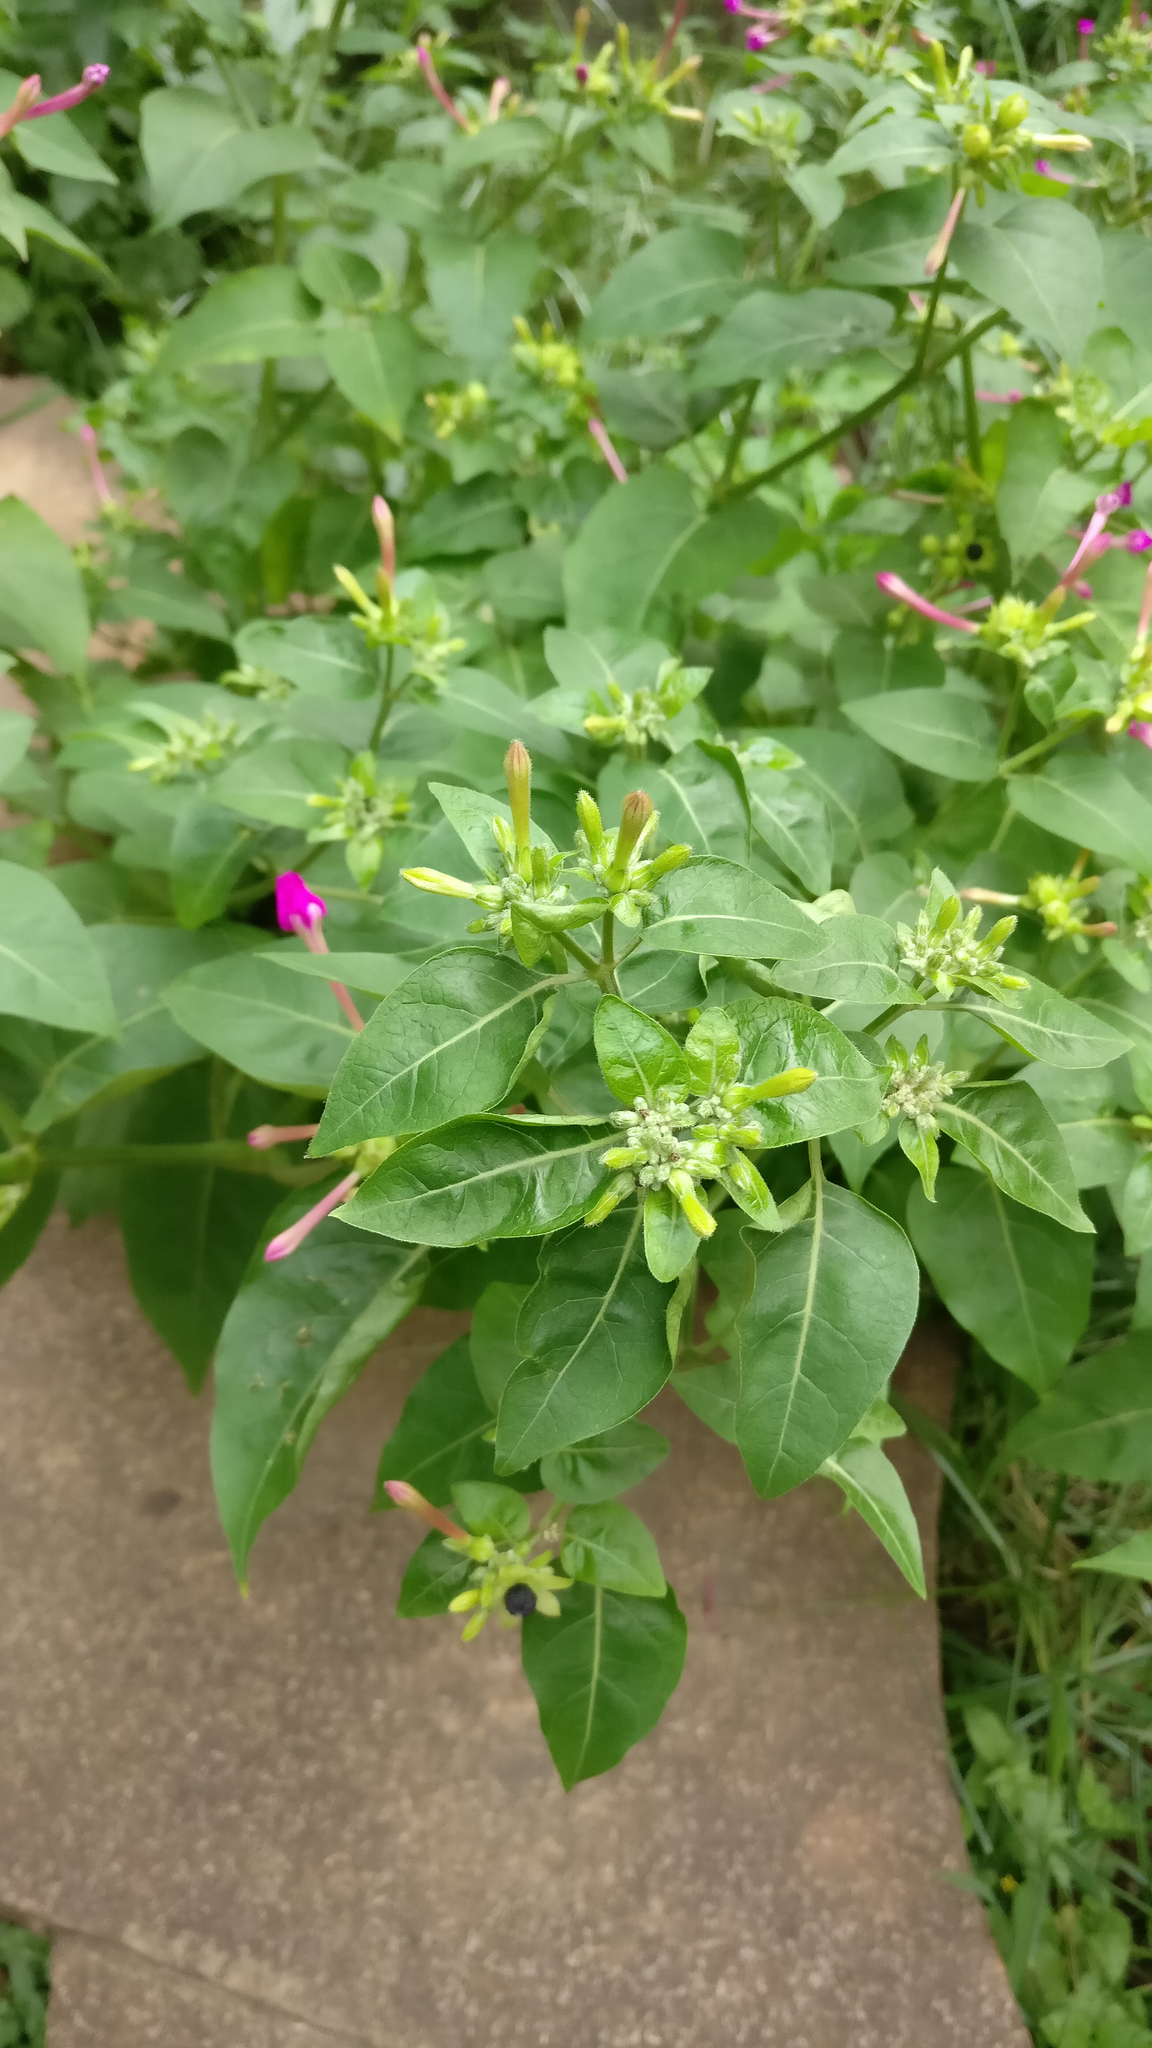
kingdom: Plantae
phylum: Tracheophyta
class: Magnoliopsida
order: Caryophyllales
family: Nyctaginaceae
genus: Mirabilis
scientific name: Mirabilis jalapa
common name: Marvel-of-peru
